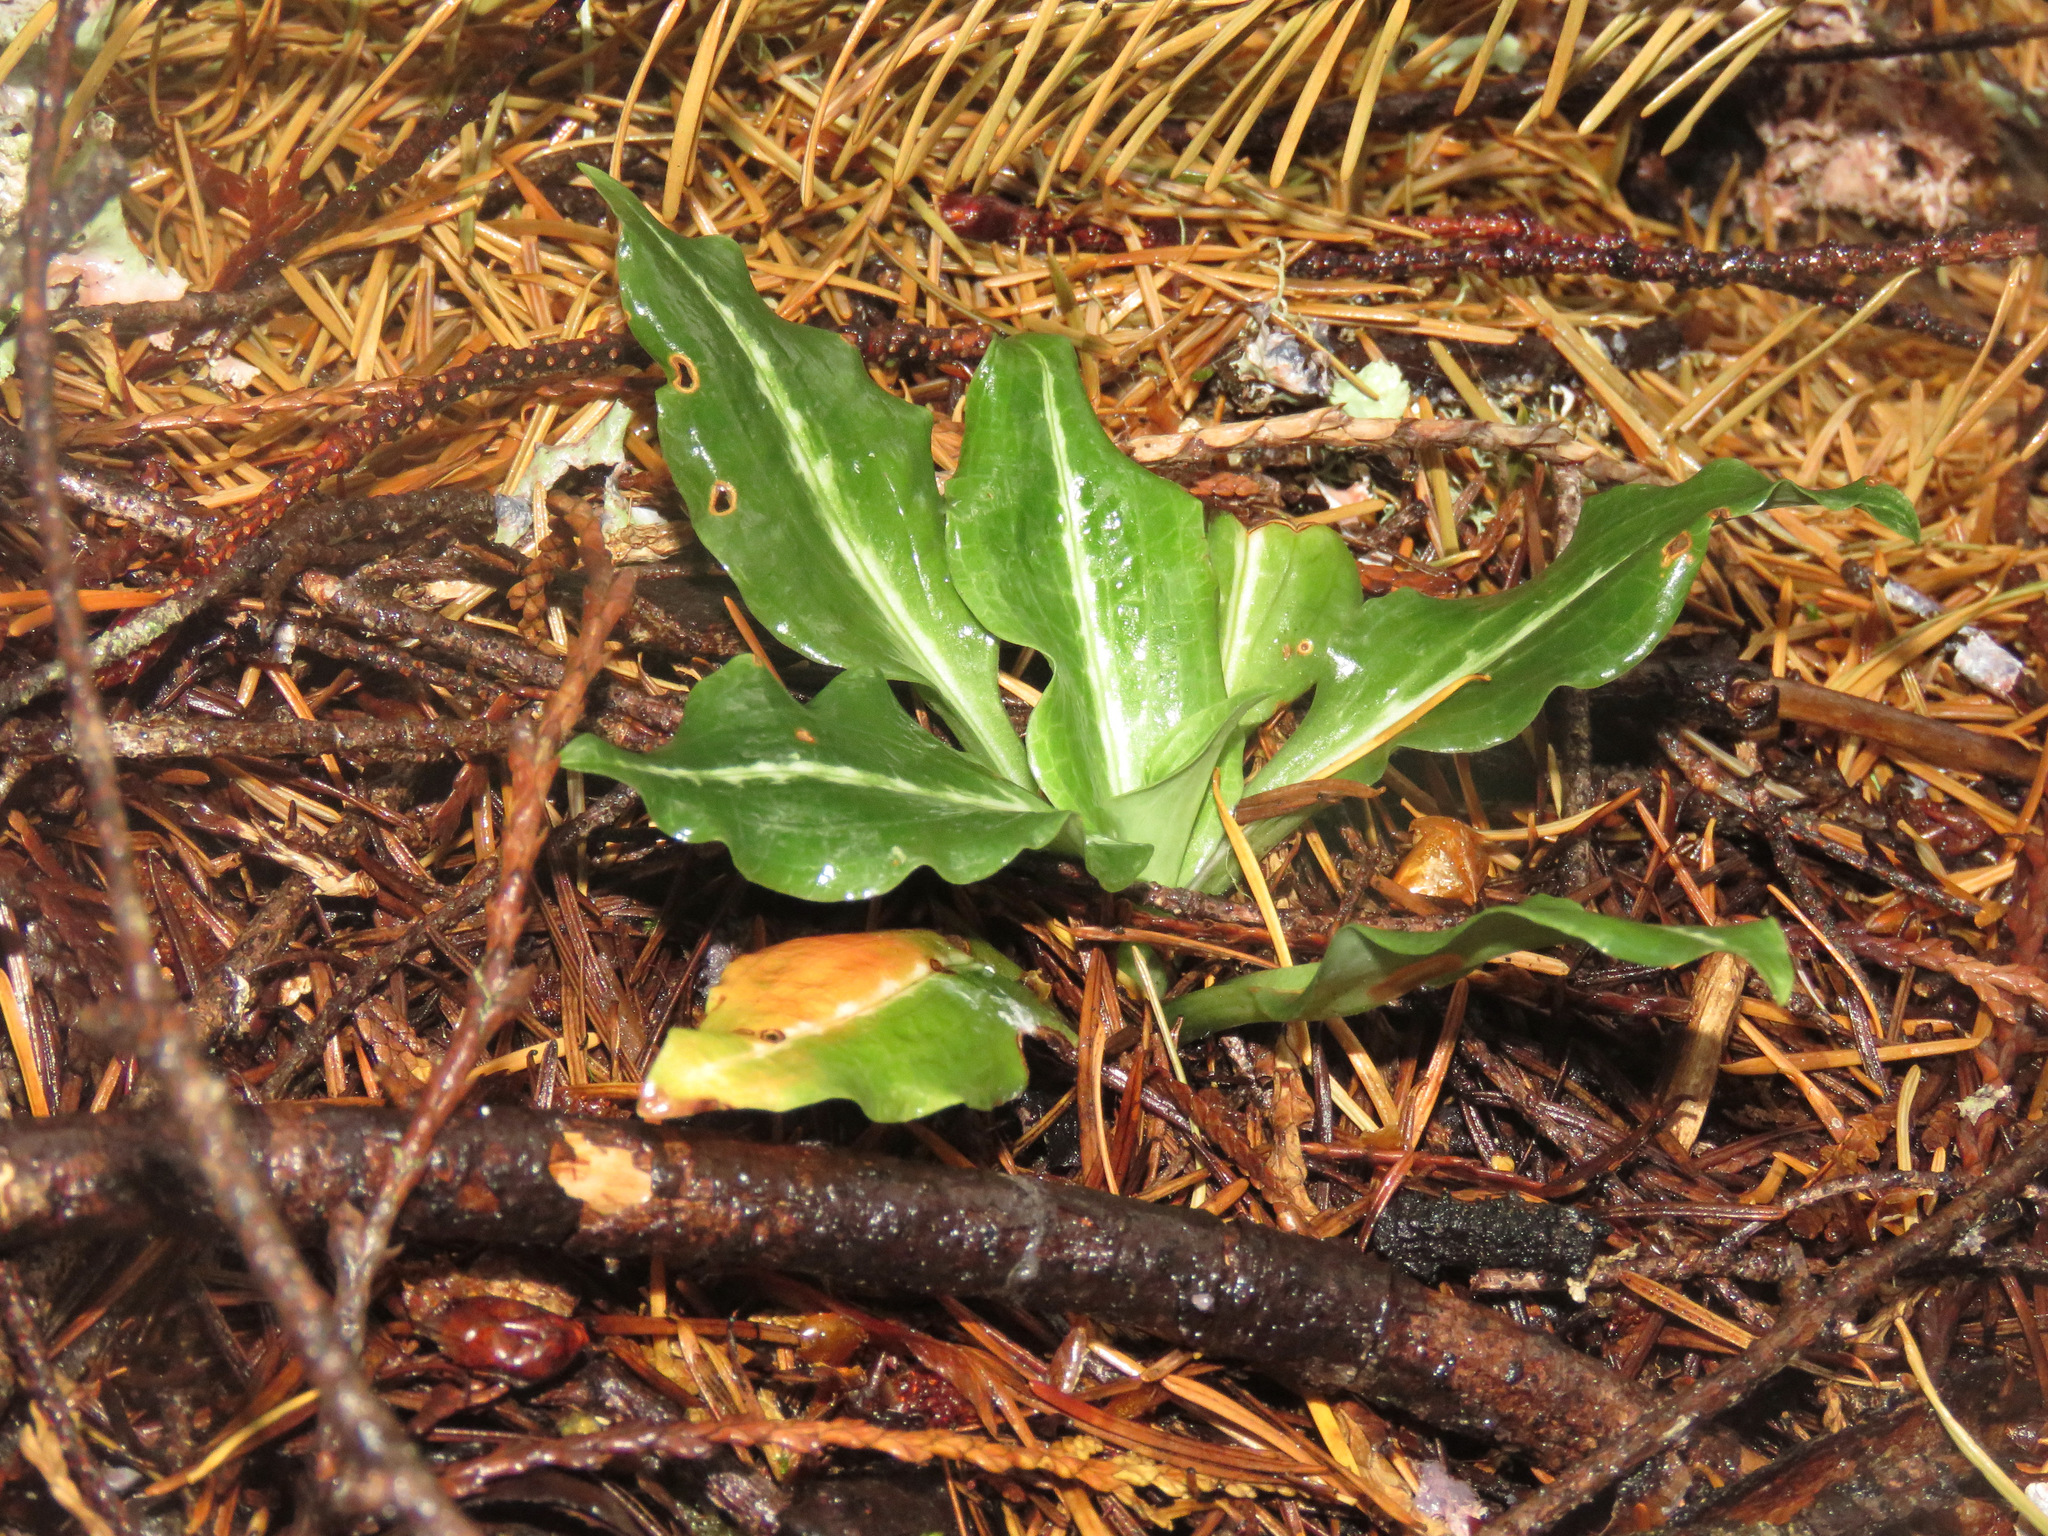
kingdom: Plantae
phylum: Tracheophyta
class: Liliopsida
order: Asparagales
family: Orchidaceae
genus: Goodyera
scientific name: Goodyera oblongifolia
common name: Giant rattlesnake-plantain
